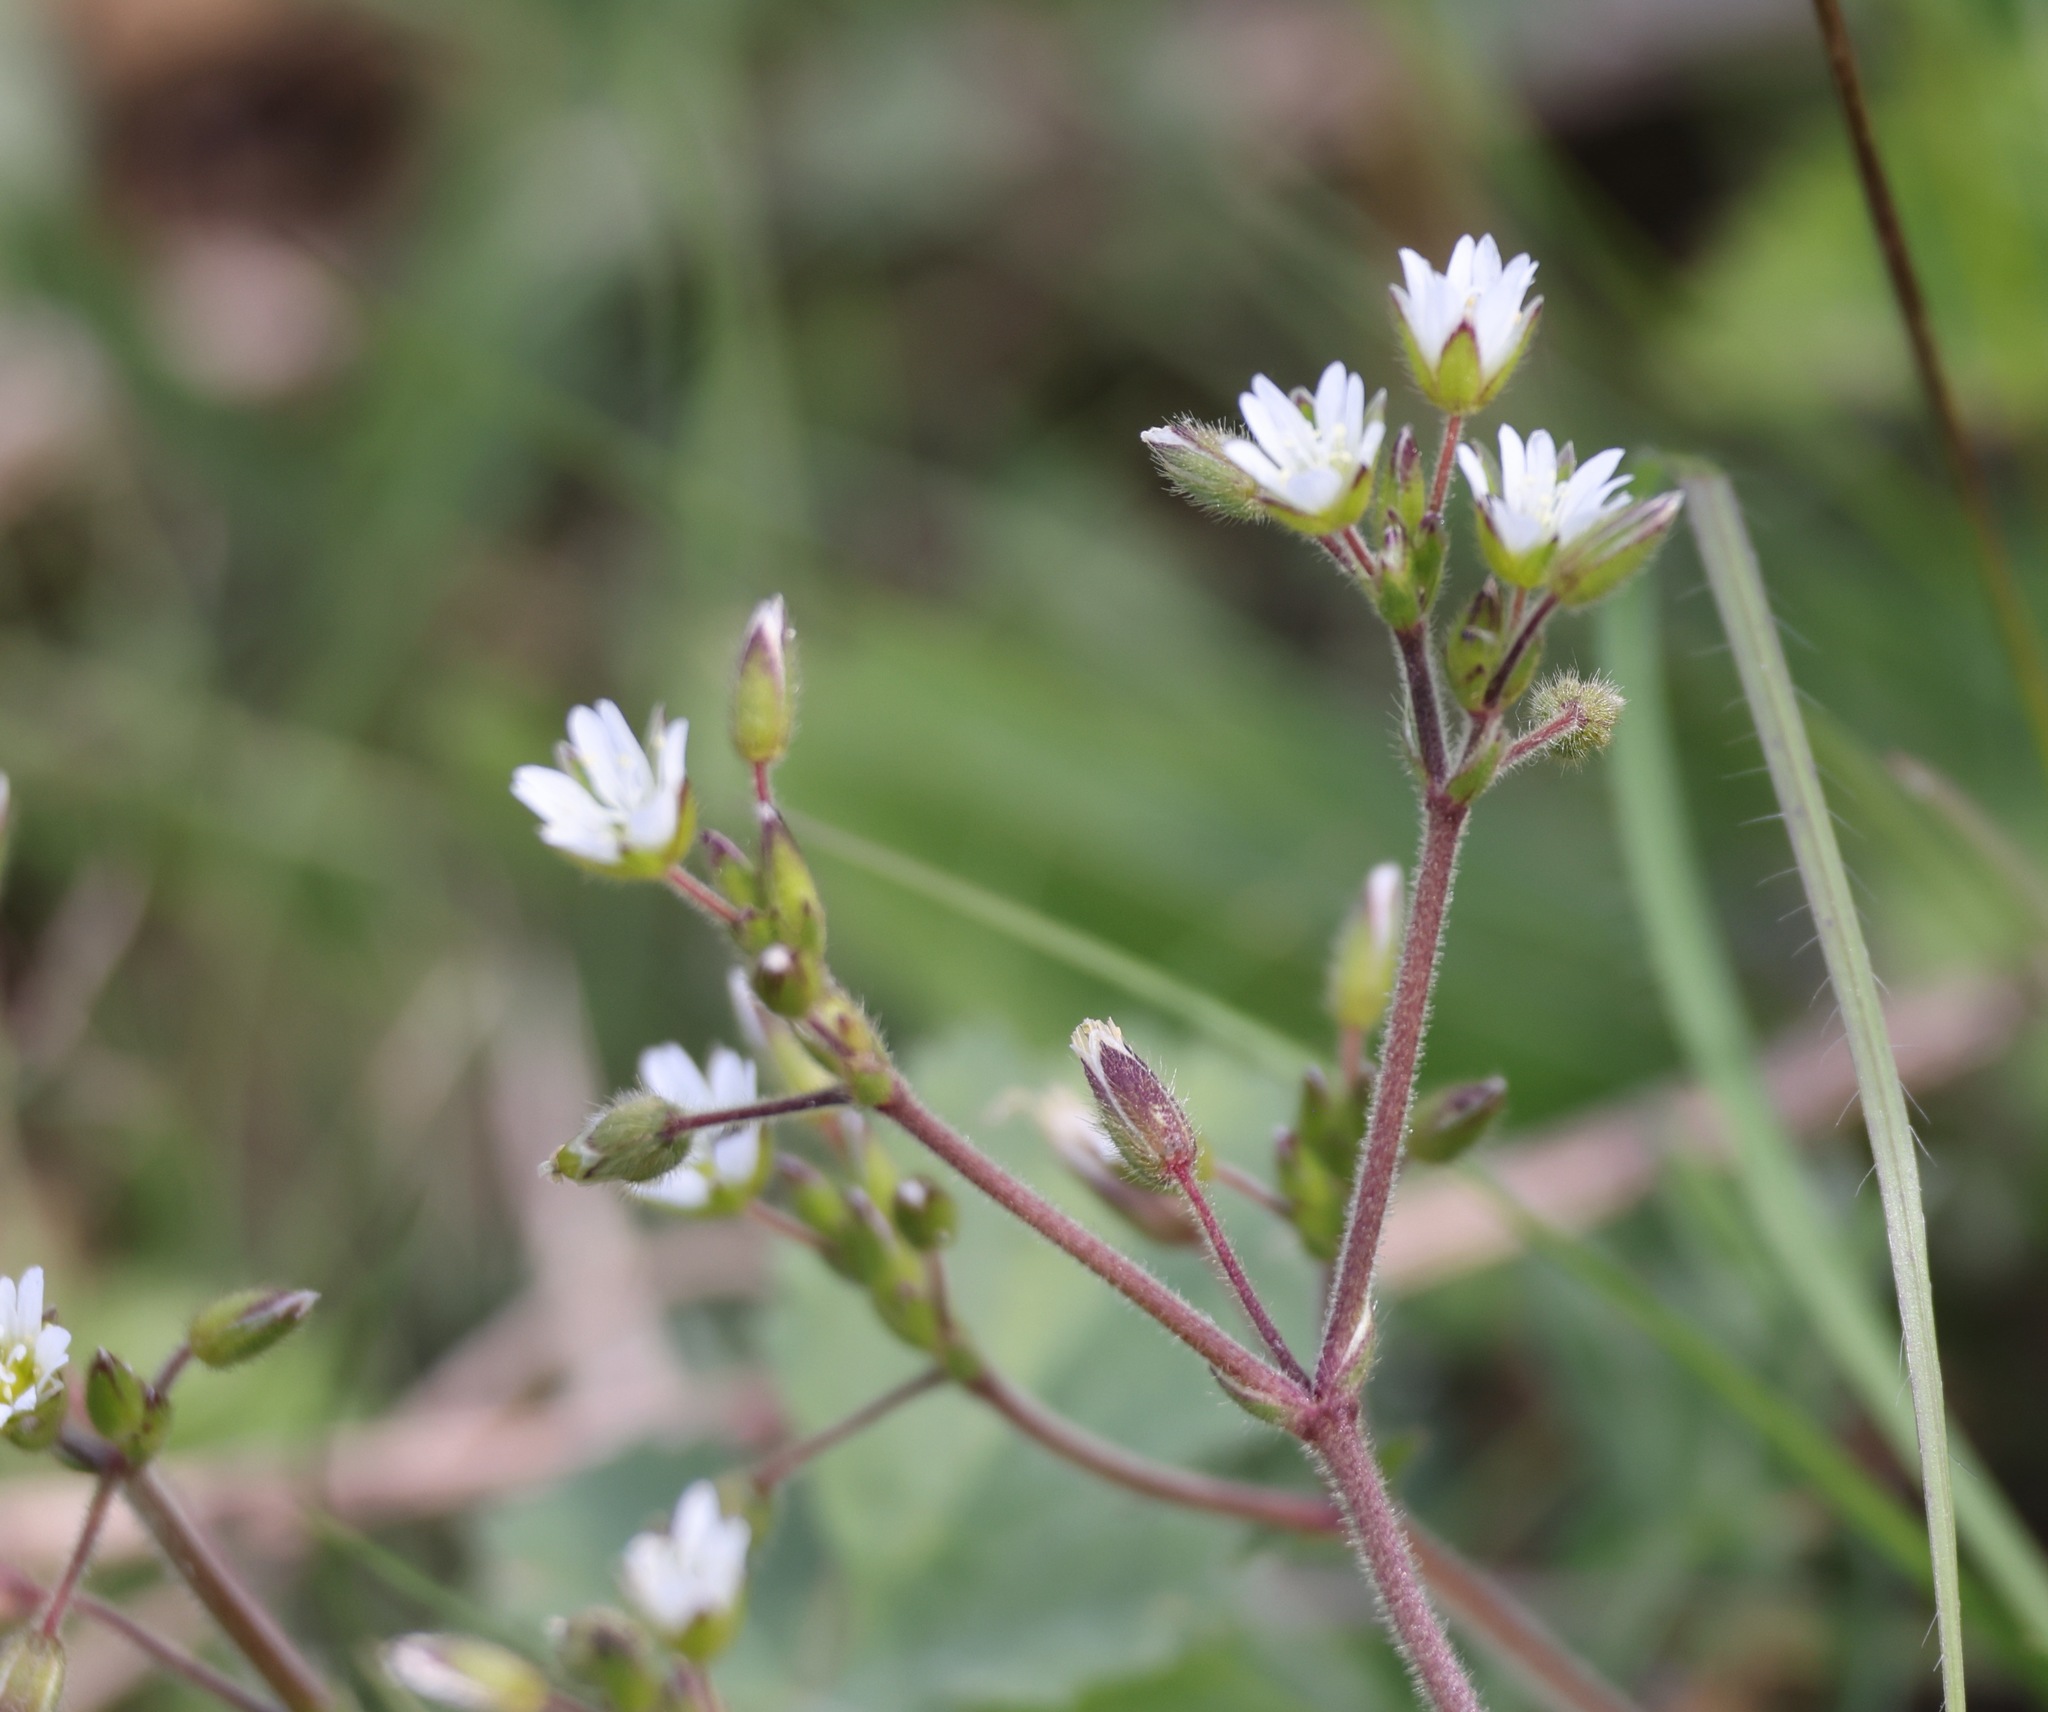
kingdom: Plantae
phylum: Tracheophyta
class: Magnoliopsida
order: Caryophyllales
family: Caryophyllaceae
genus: Cerastium
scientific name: Cerastium fontanum
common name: Common mouse-ear
